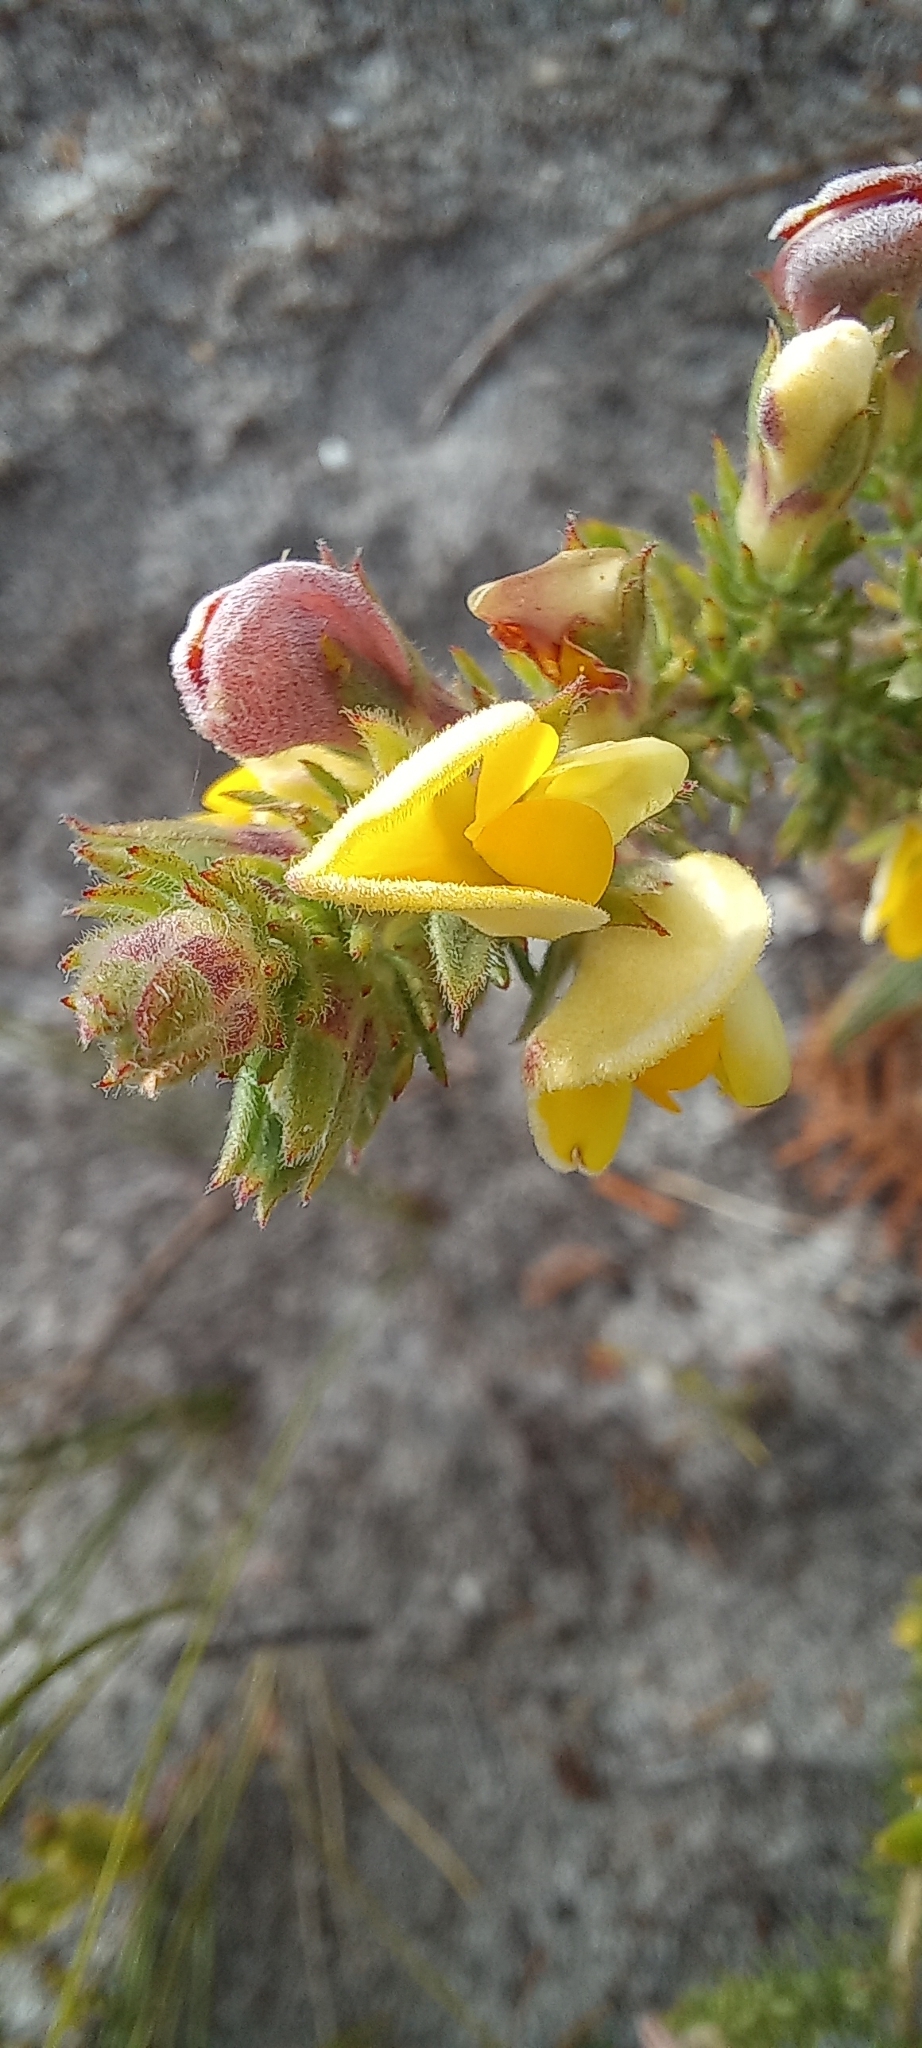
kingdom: Plantae
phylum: Tracheophyta
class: Magnoliopsida
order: Fabales
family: Fabaceae
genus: Aspalathus
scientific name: Aspalathus ciliaris
